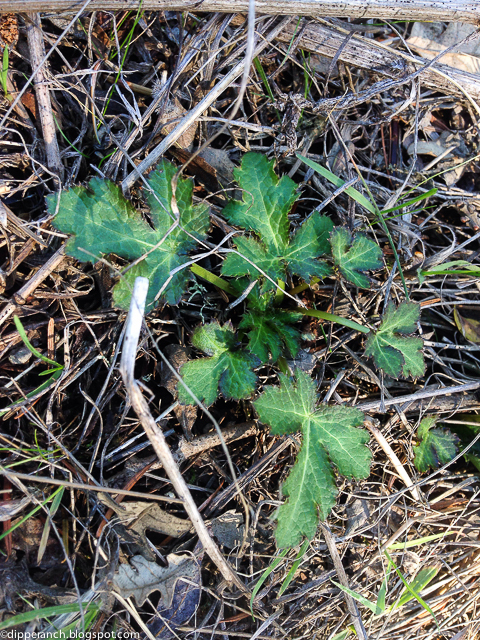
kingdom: Plantae
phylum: Tracheophyta
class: Magnoliopsida
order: Apiales
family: Apiaceae
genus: Sanicula
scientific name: Sanicula crassicaulis
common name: Western snakeroot
